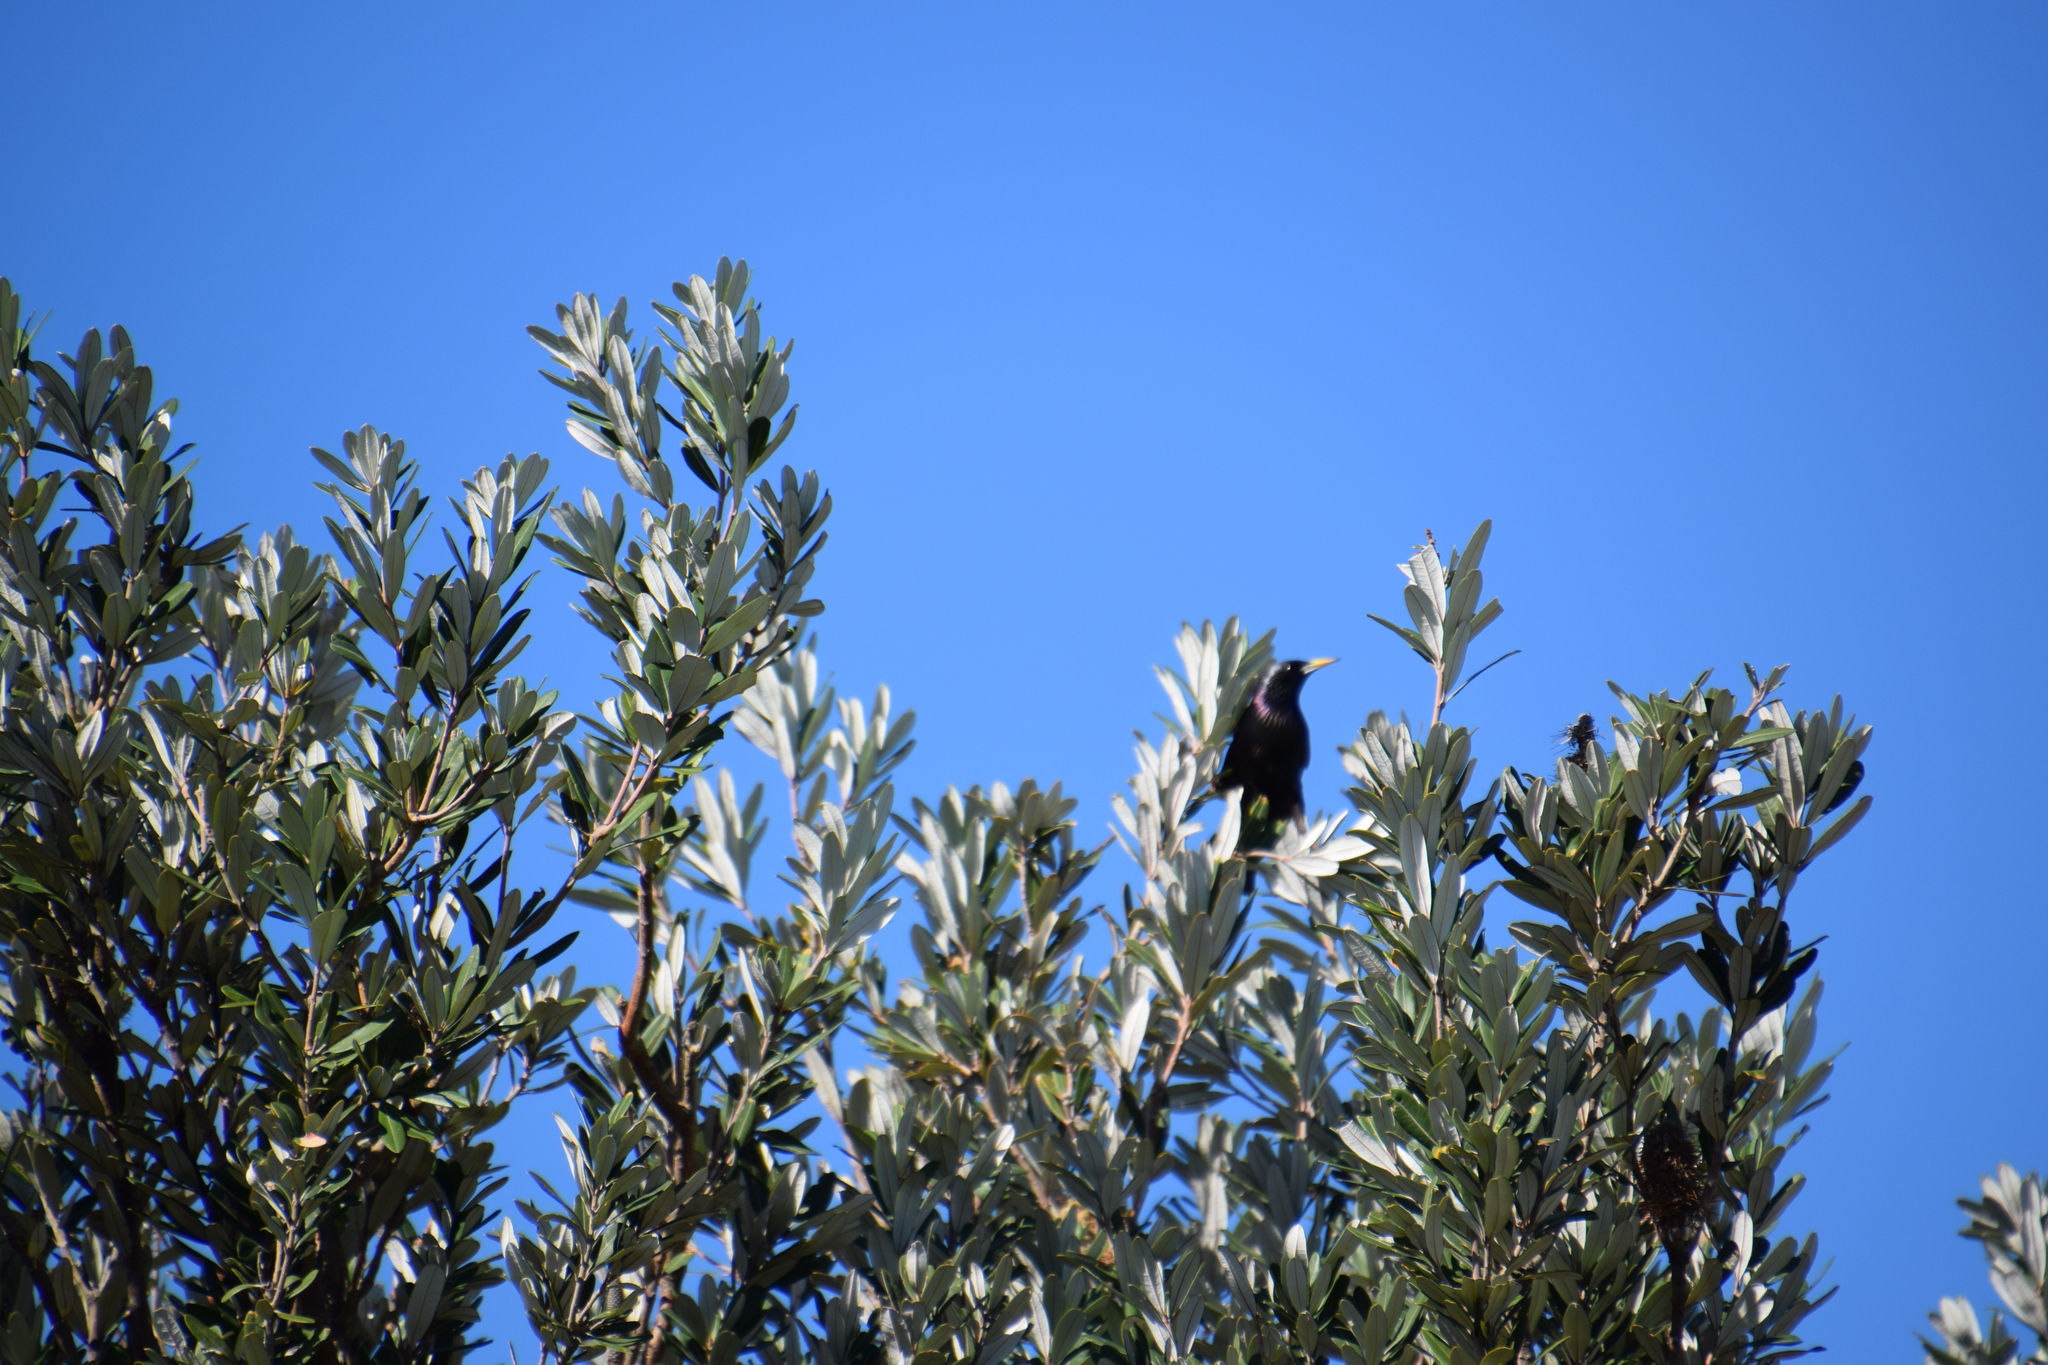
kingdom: Animalia
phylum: Chordata
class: Aves
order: Passeriformes
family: Sturnidae
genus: Sturnus
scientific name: Sturnus vulgaris
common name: Common starling
